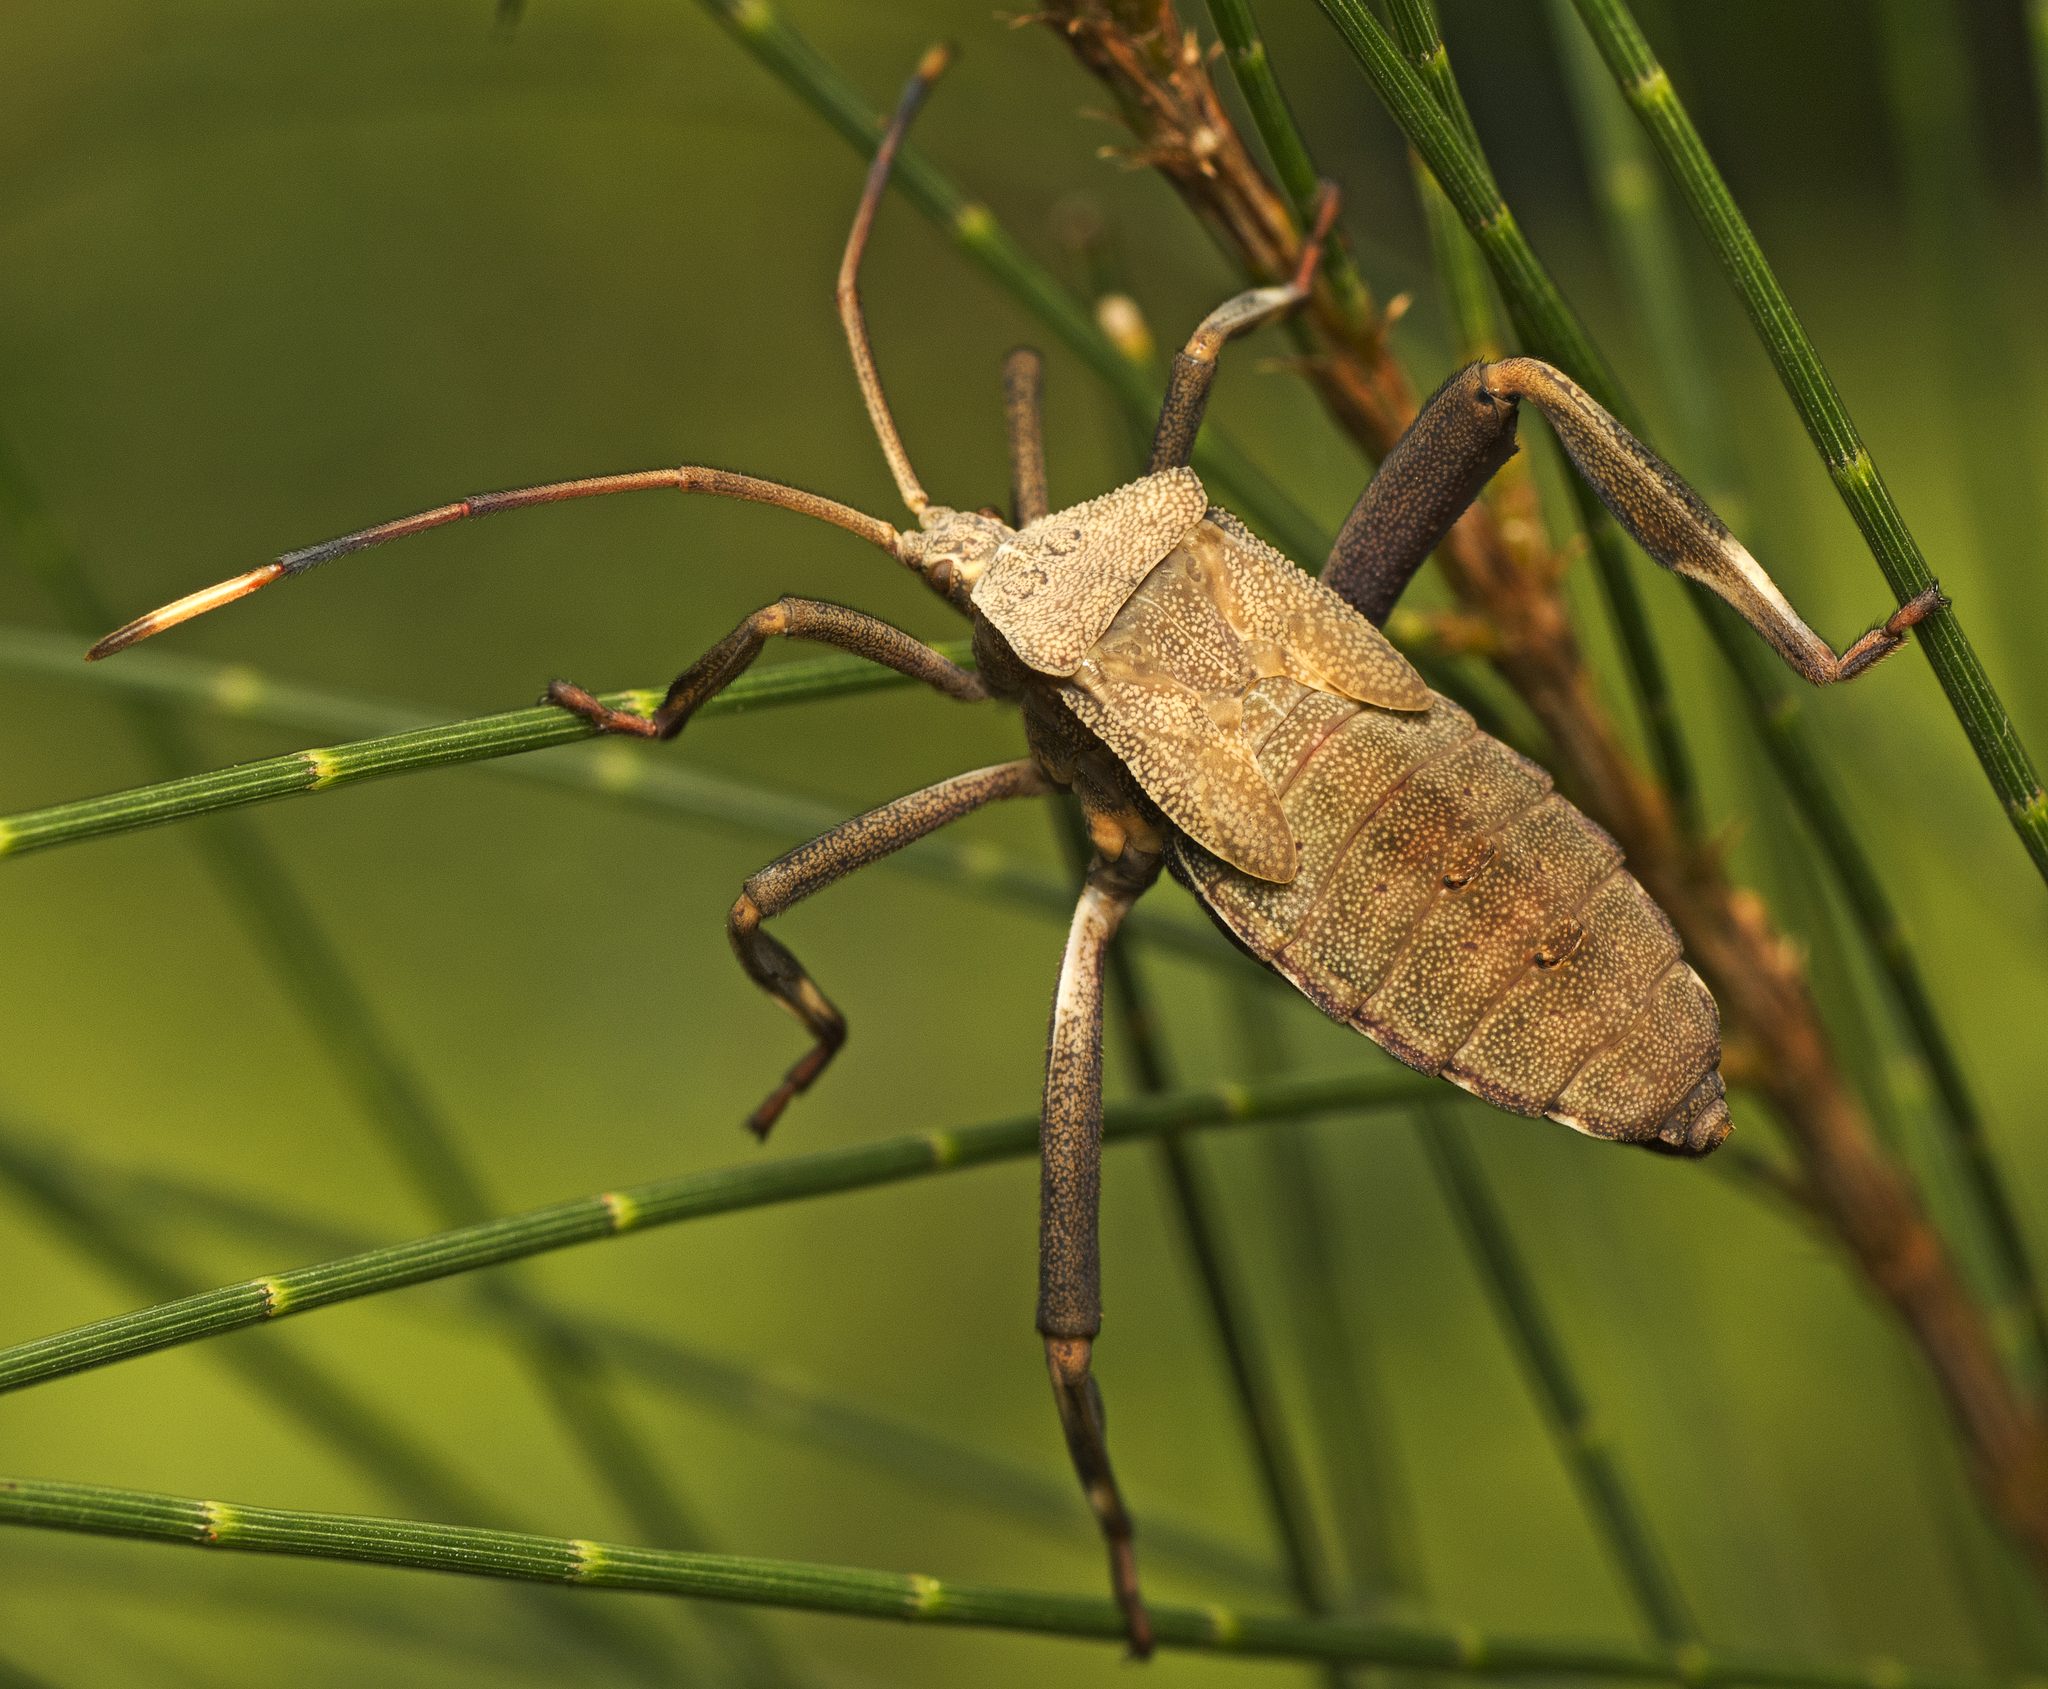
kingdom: Animalia
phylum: Arthropoda
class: Insecta
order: Hemiptera
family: Coreidae
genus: Mictis
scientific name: Mictis caja
